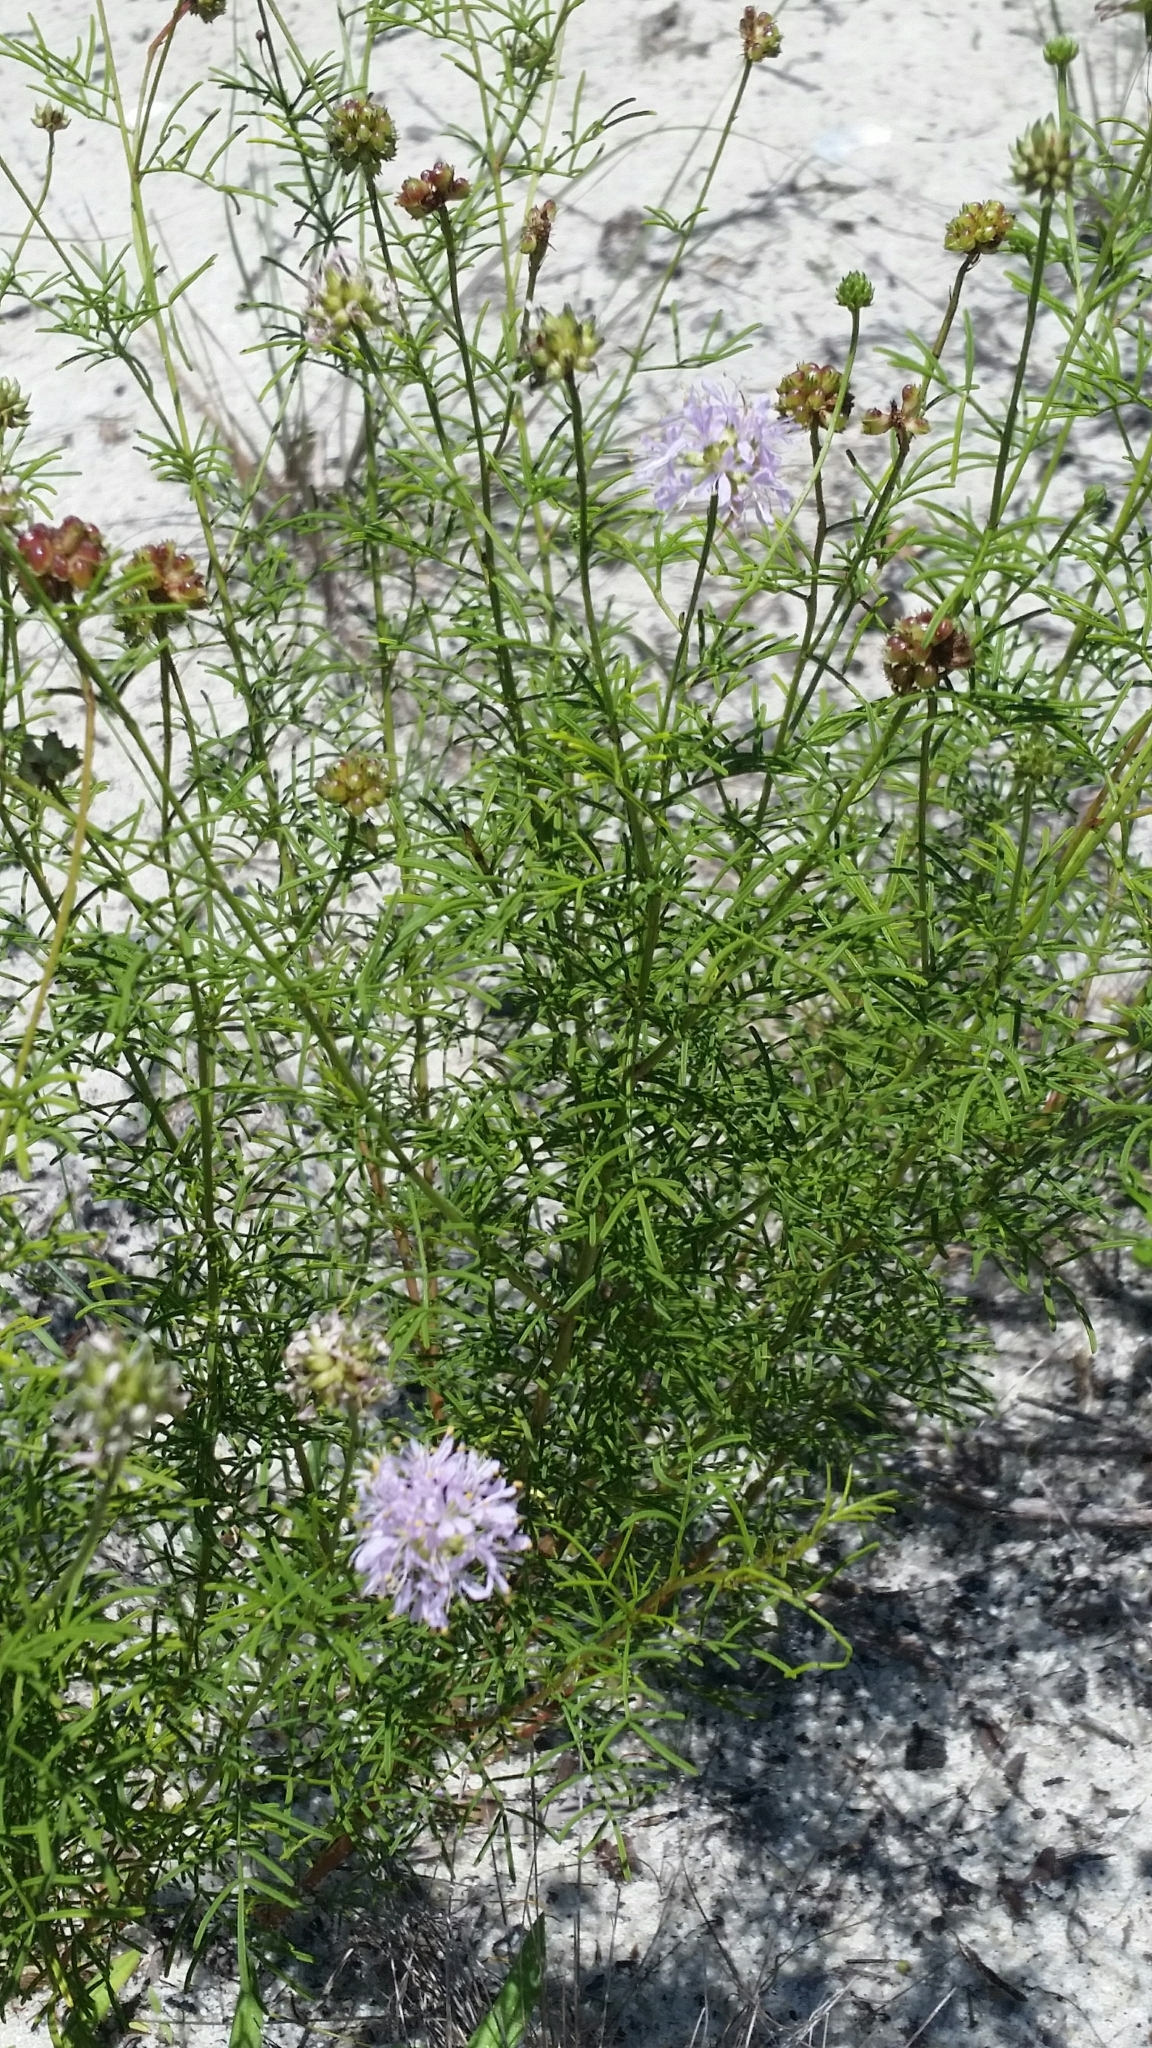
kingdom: Plantae
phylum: Tracheophyta
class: Magnoliopsida
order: Fabales
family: Fabaceae
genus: Dalea
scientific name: Dalea feayi
